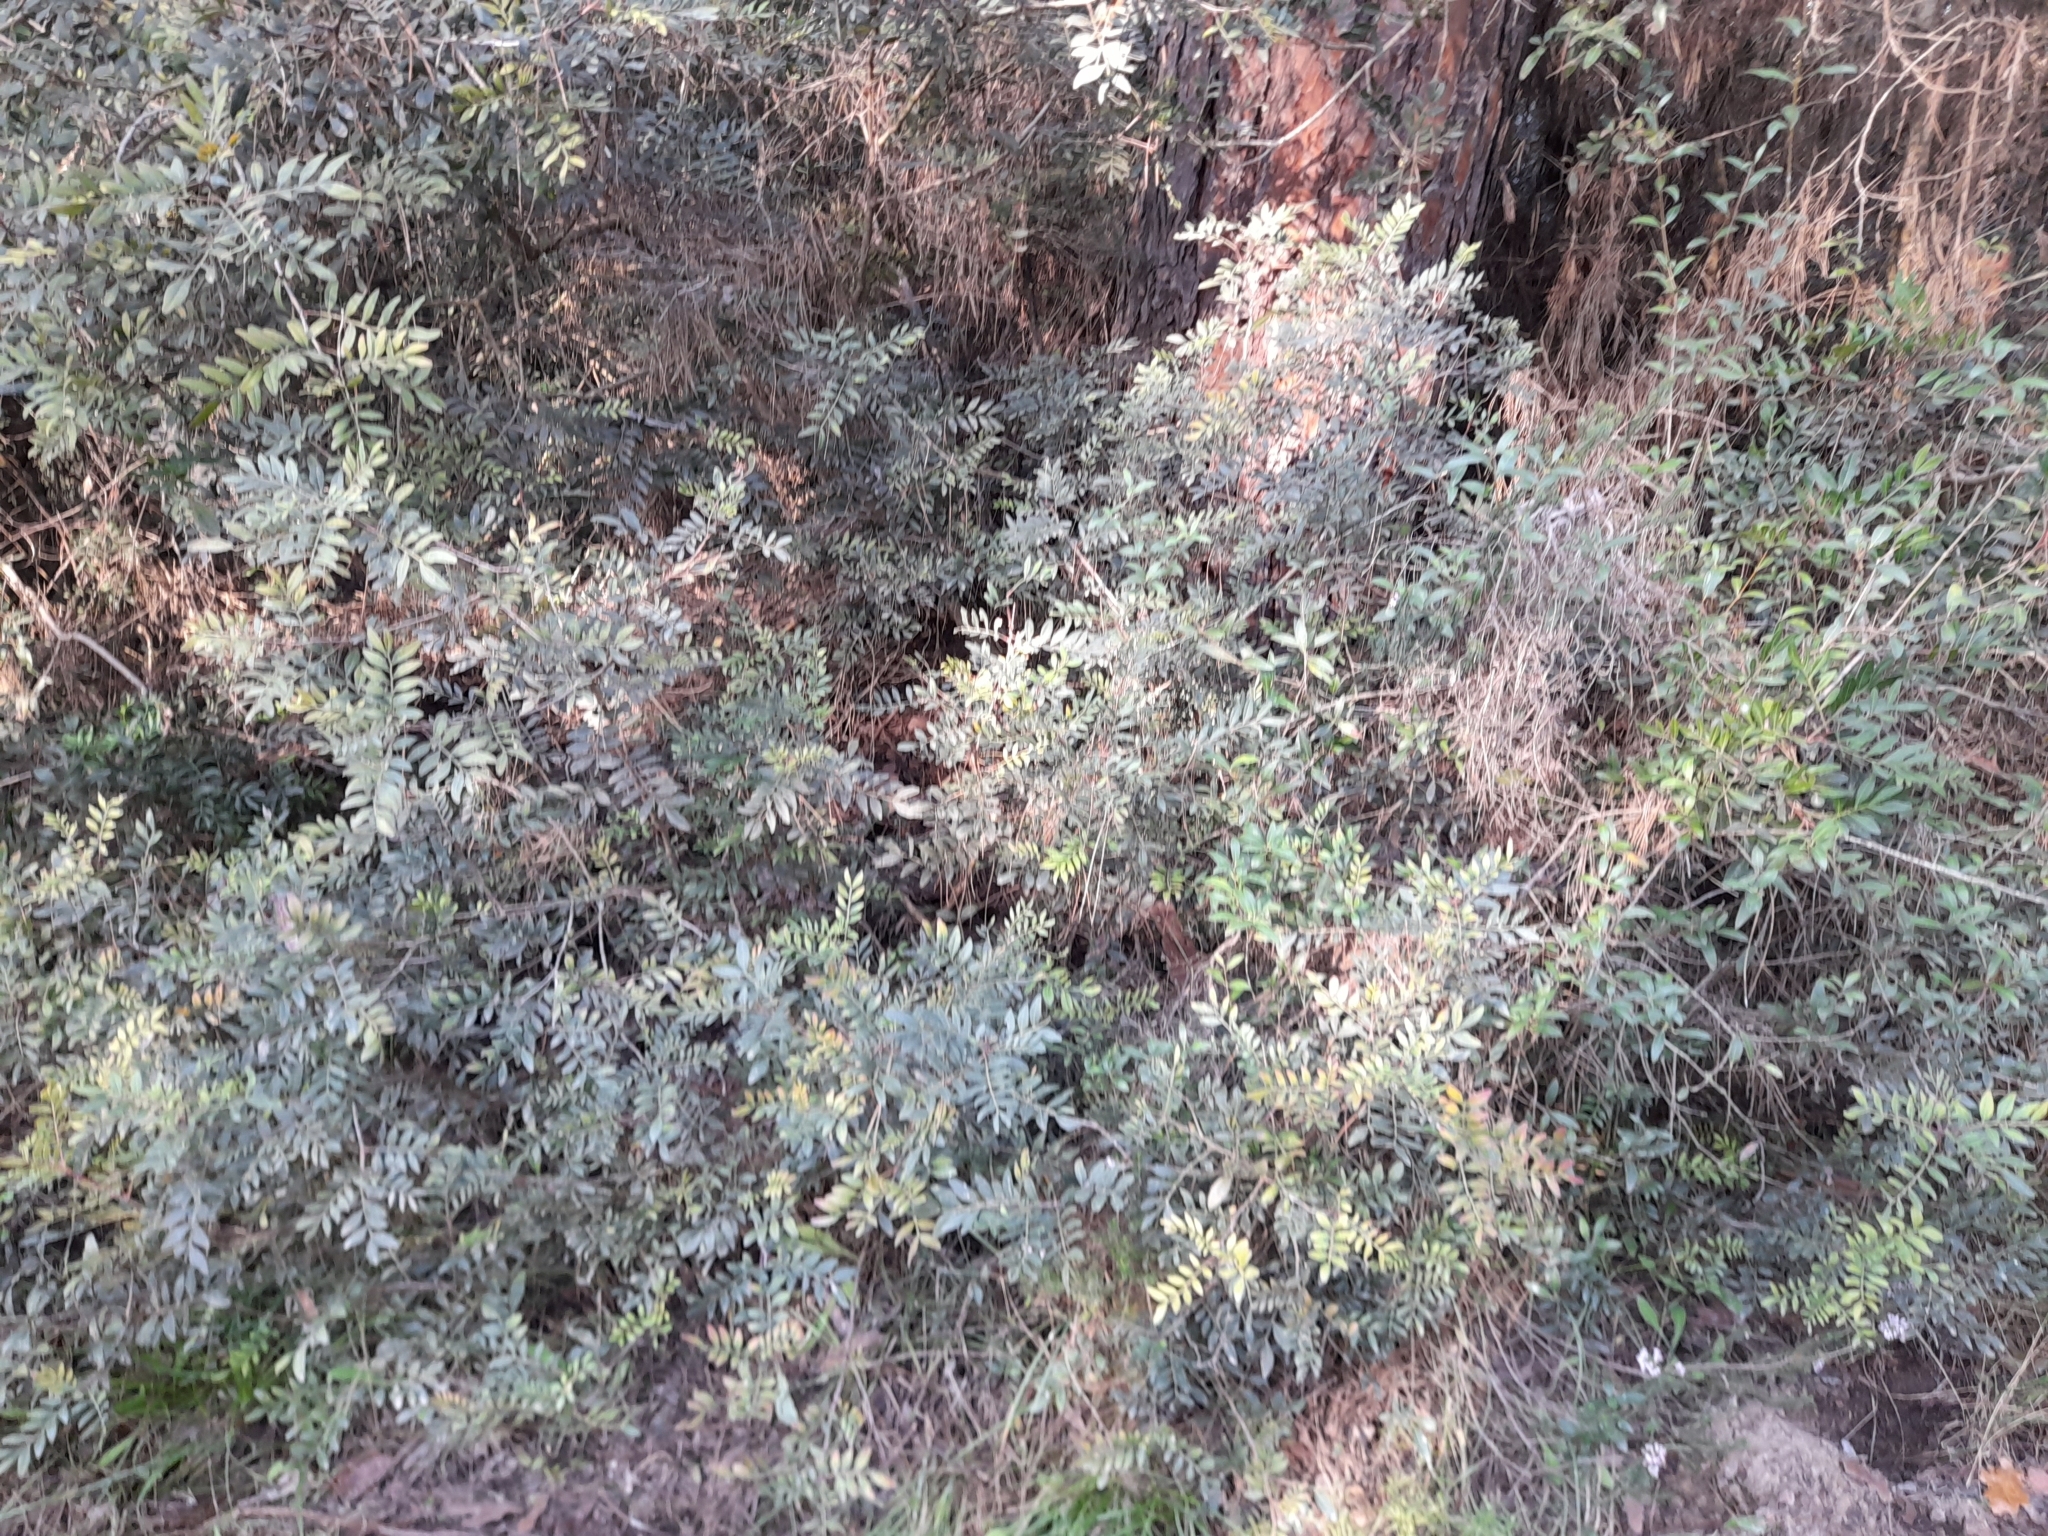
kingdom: Plantae
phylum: Tracheophyta
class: Magnoliopsida
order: Sapindales
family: Anacardiaceae
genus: Pistacia
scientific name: Pistacia lentiscus
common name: Lentisk
